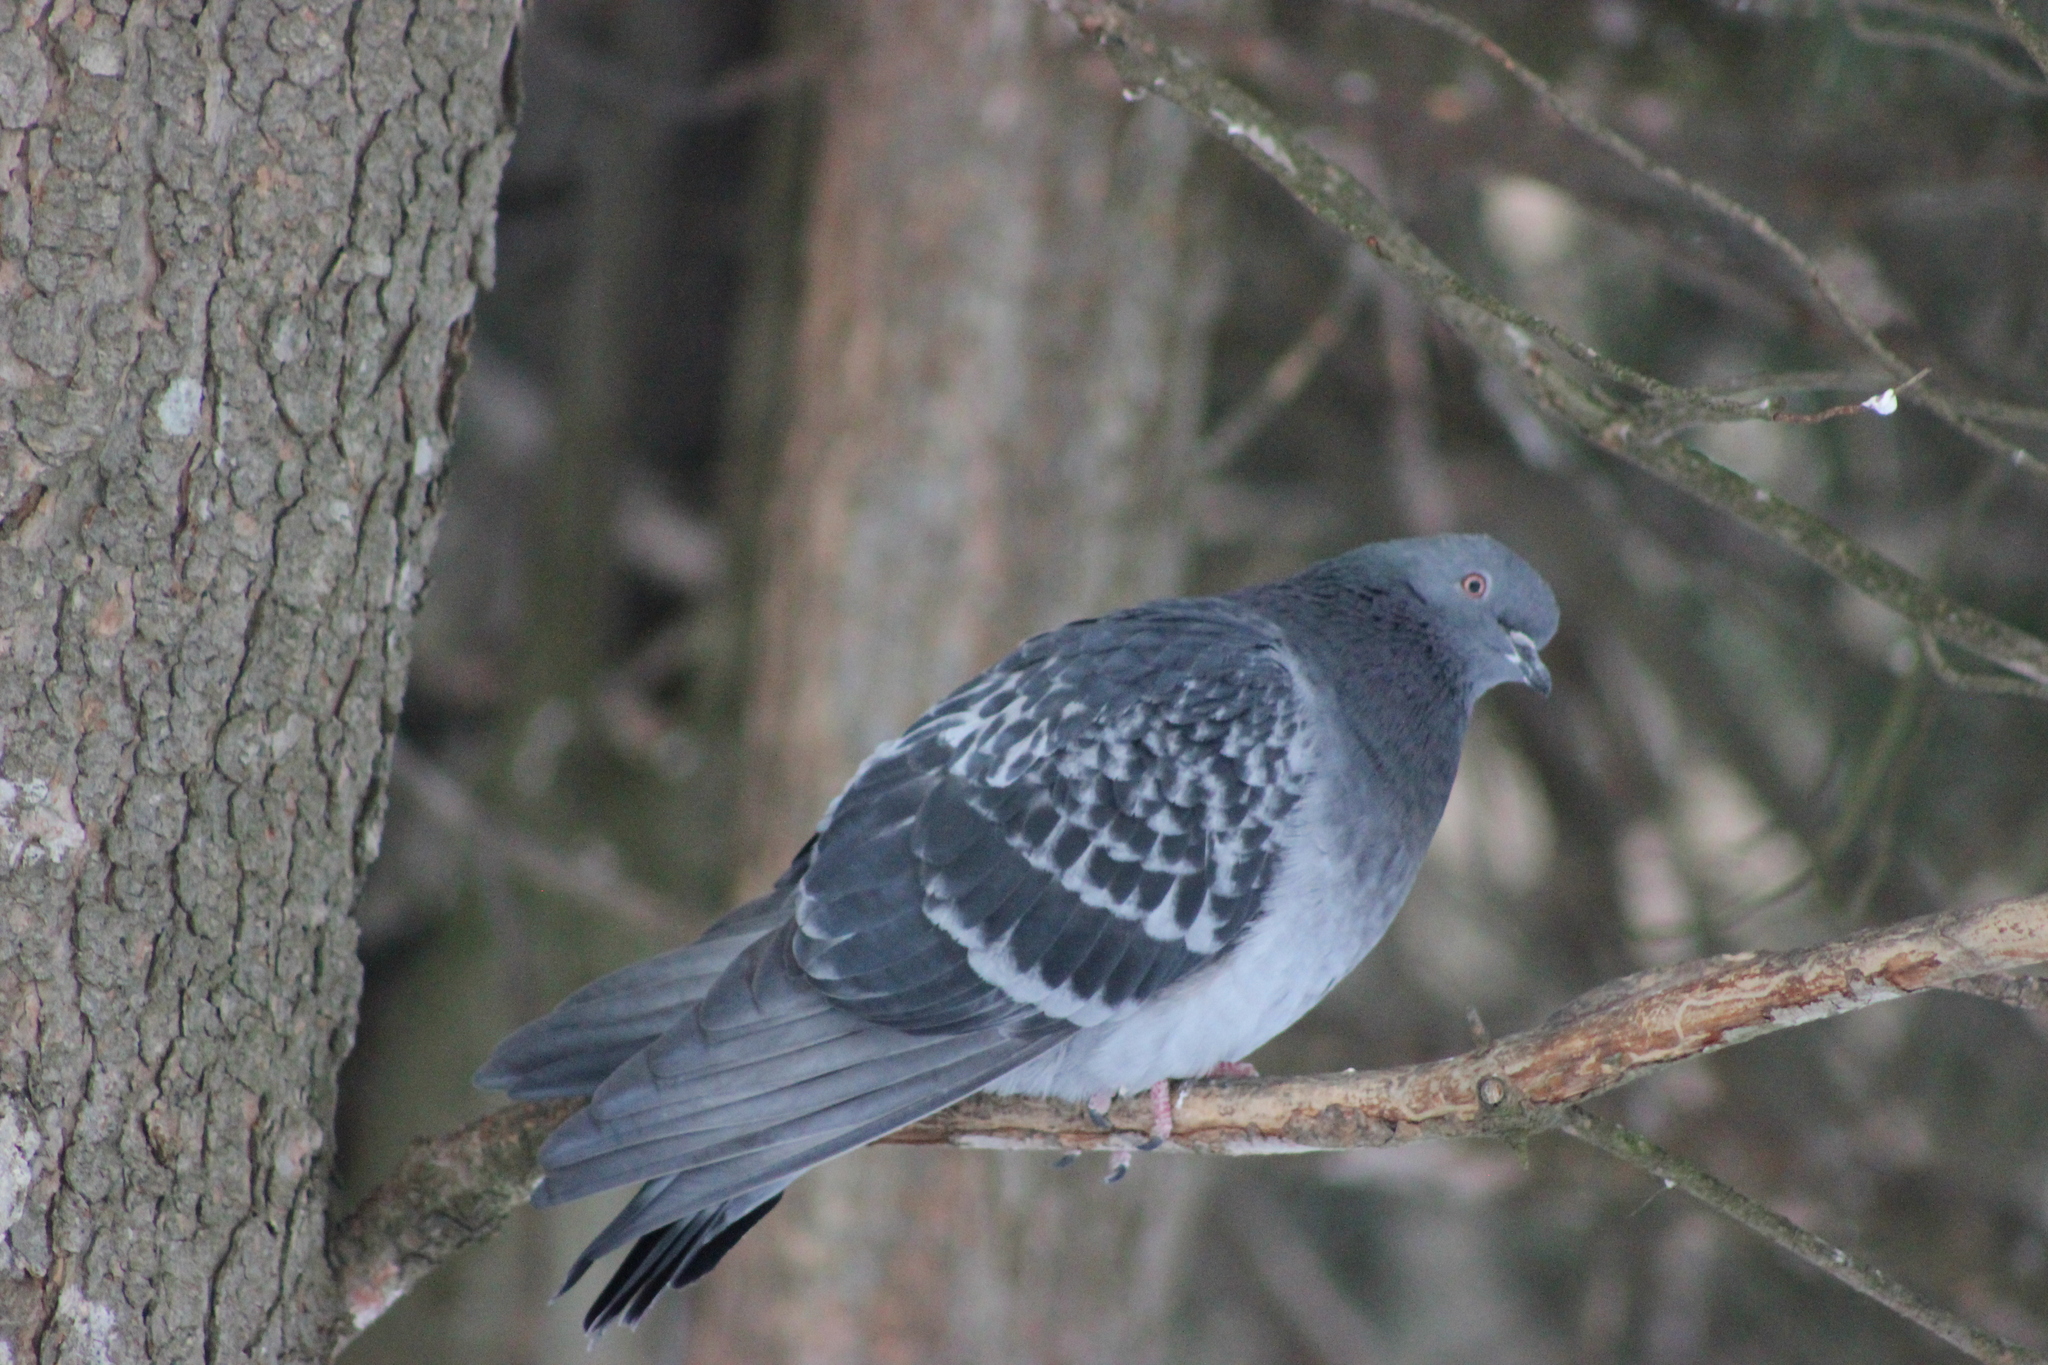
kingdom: Animalia
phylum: Chordata
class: Aves
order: Columbiformes
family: Columbidae
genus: Columba
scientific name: Columba livia
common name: Rock pigeon
